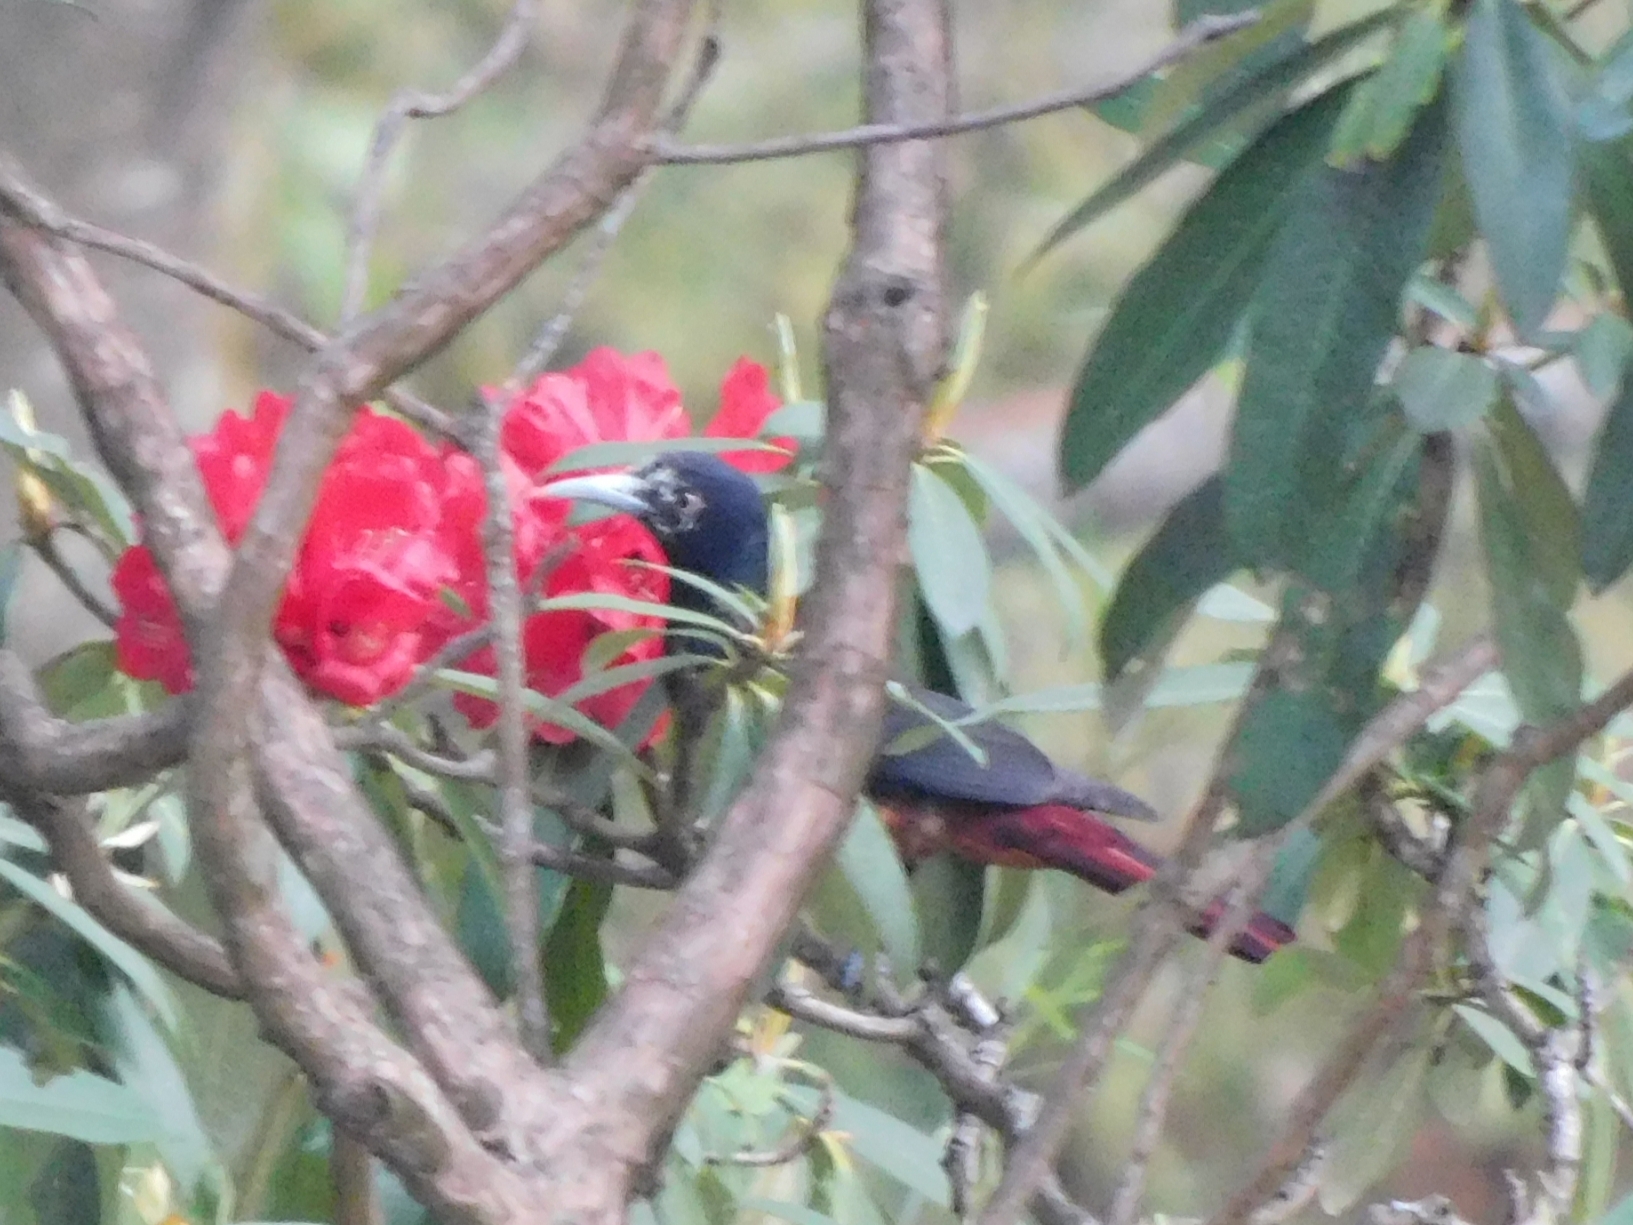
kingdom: Animalia
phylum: Chordata
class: Aves
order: Passeriformes
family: Oriolidae
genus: Oriolus
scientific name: Oriolus traillii
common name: Maroon oriole
